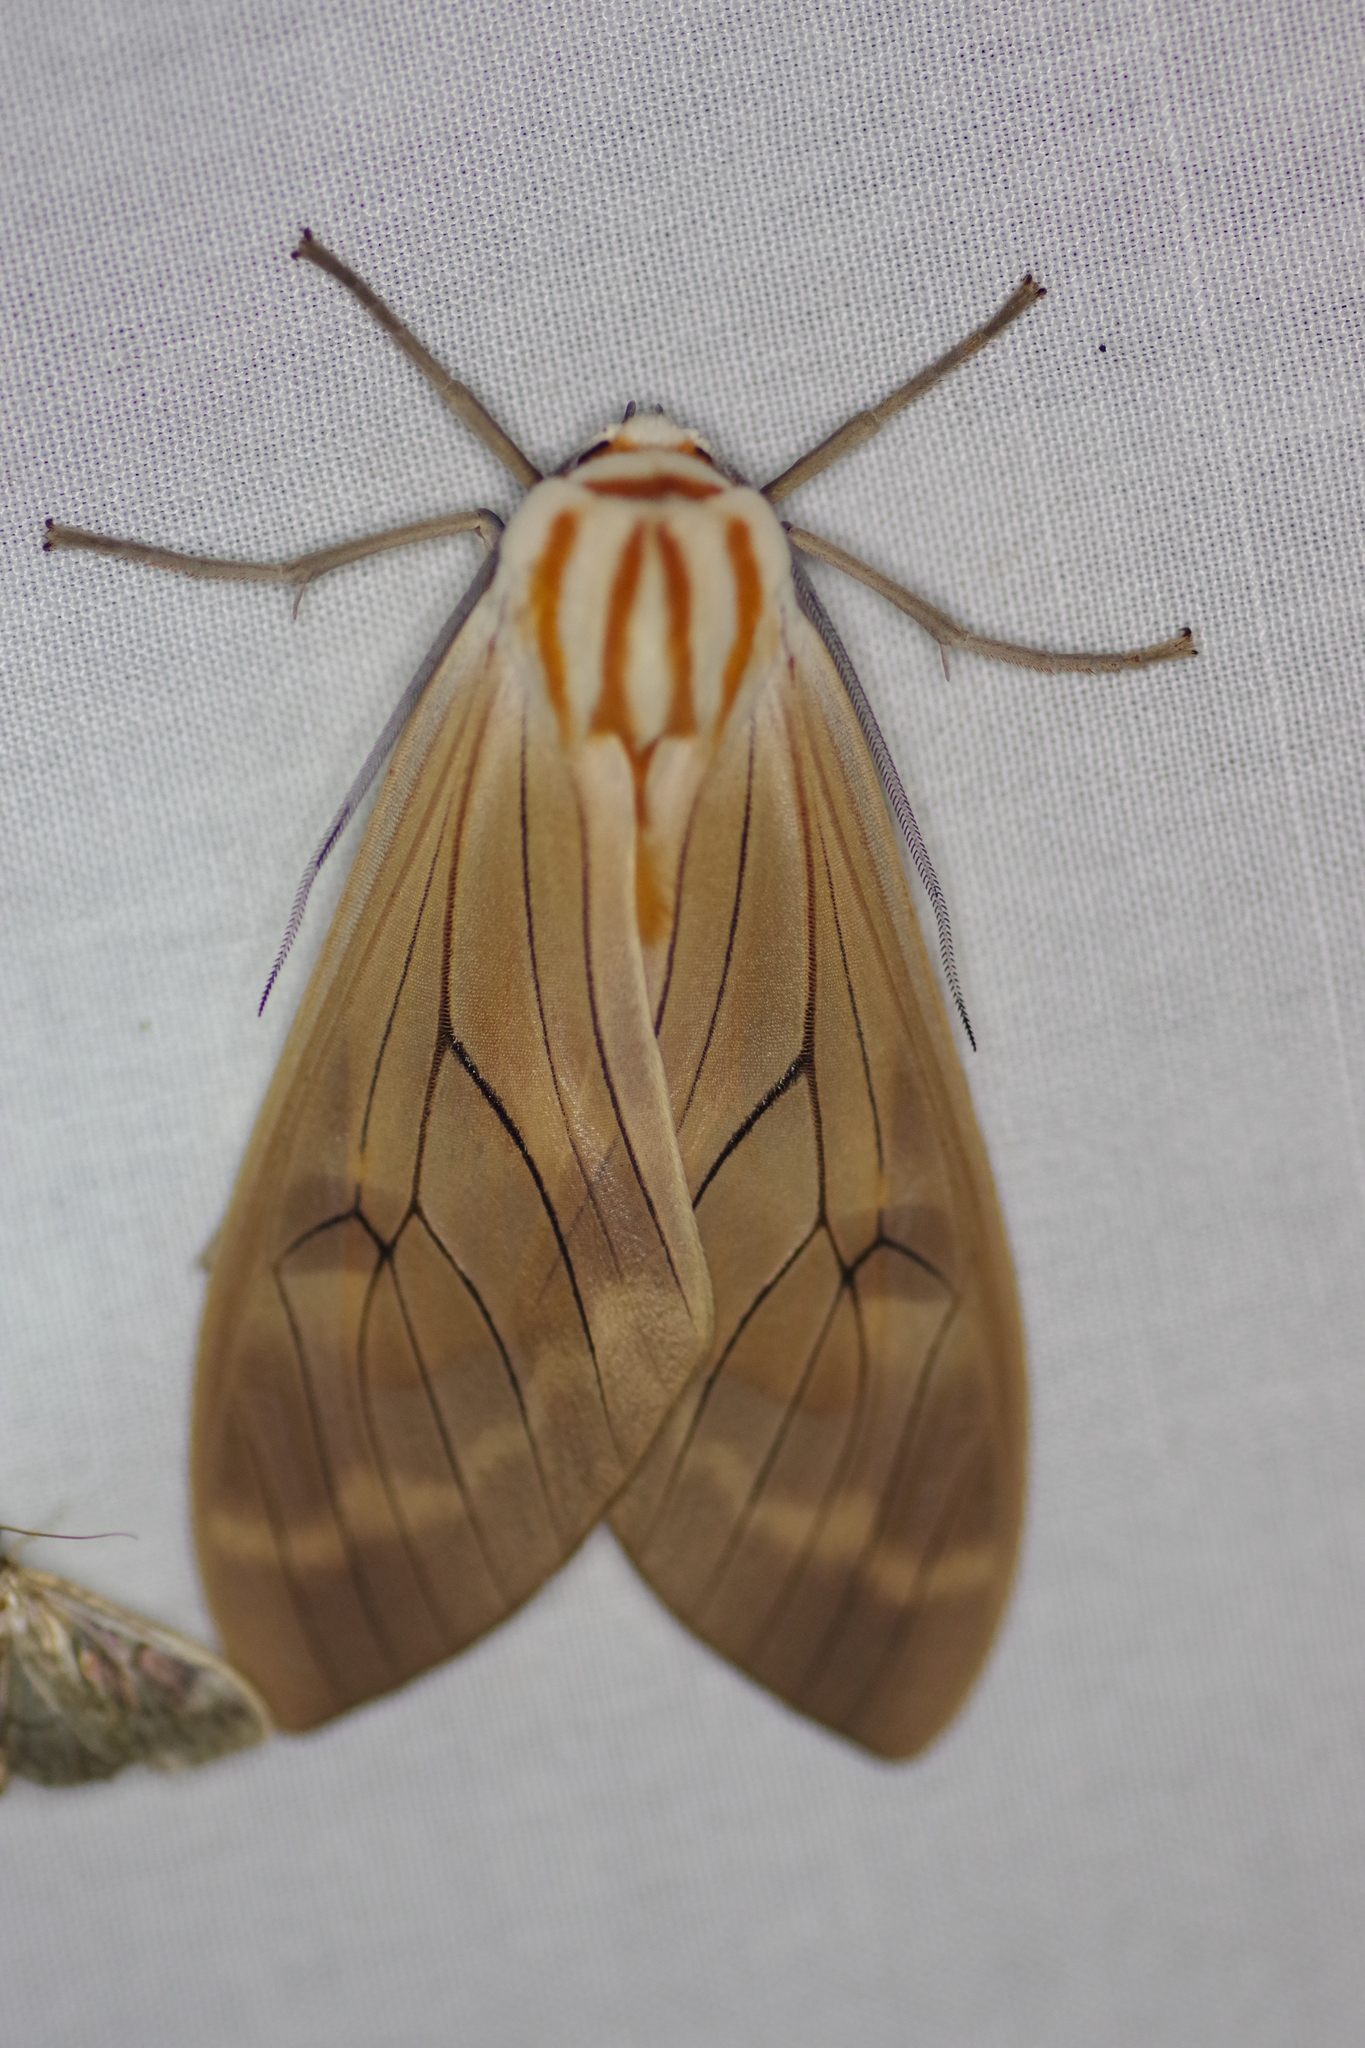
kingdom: Animalia
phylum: Arthropoda
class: Insecta
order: Lepidoptera
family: Erebidae
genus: Amastus
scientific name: Amastus aconia
